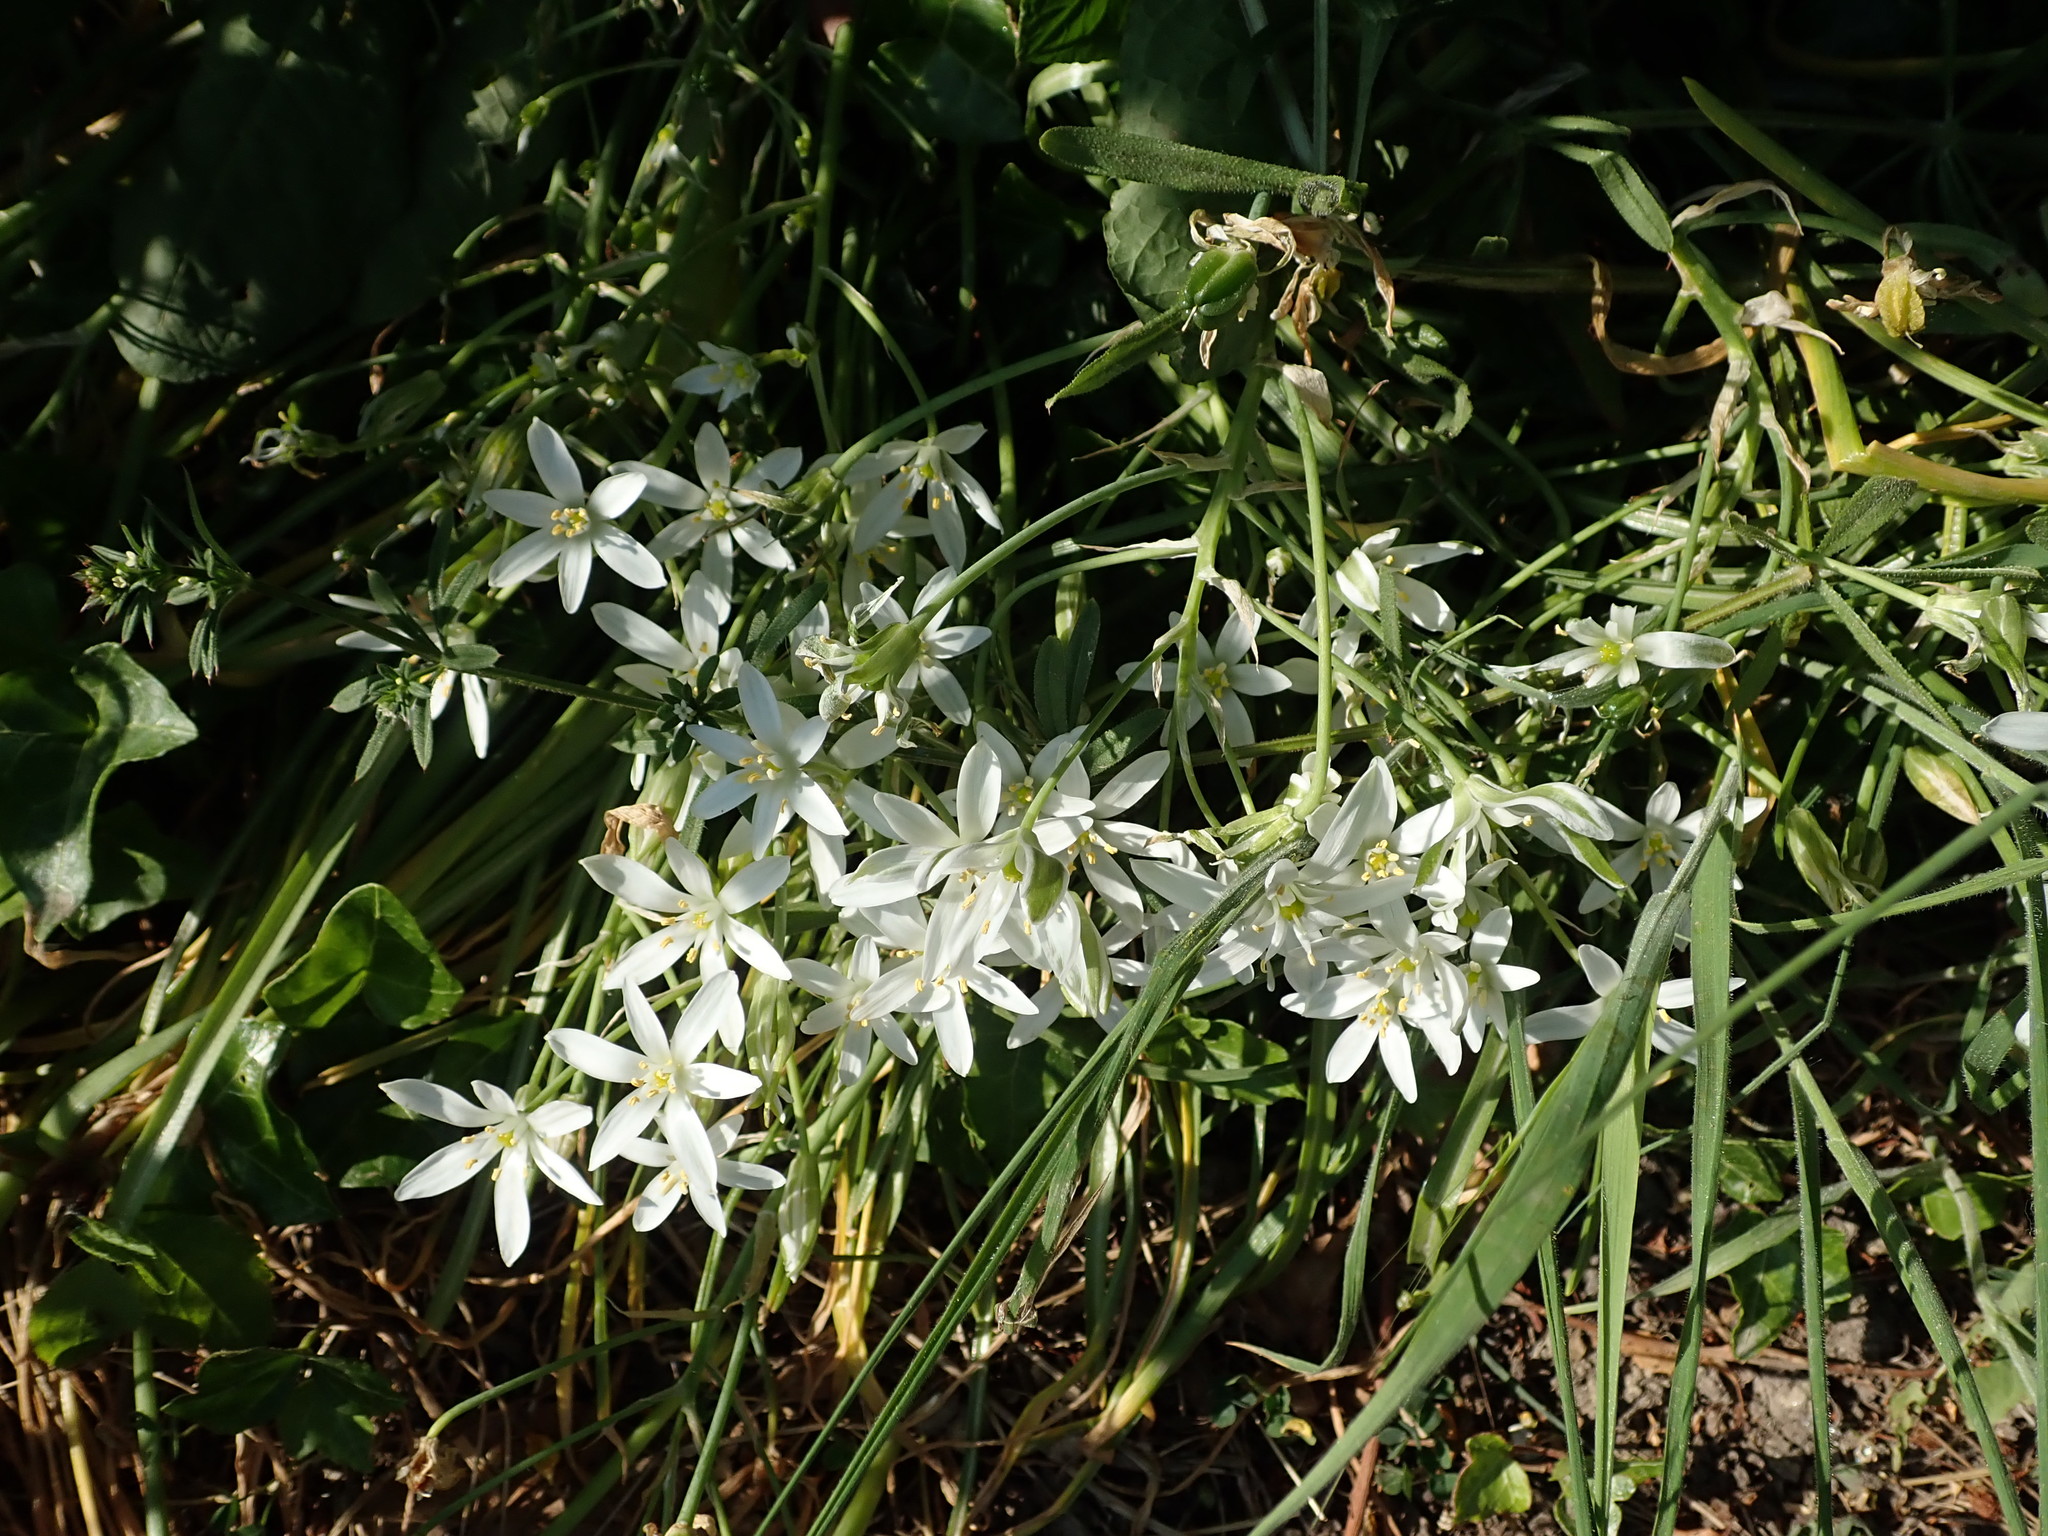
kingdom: Plantae
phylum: Tracheophyta
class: Liliopsida
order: Asparagales
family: Asparagaceae
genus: Ornithogalum
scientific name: Ornithogalum umbellatum
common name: Garden star-of-bethlehem
